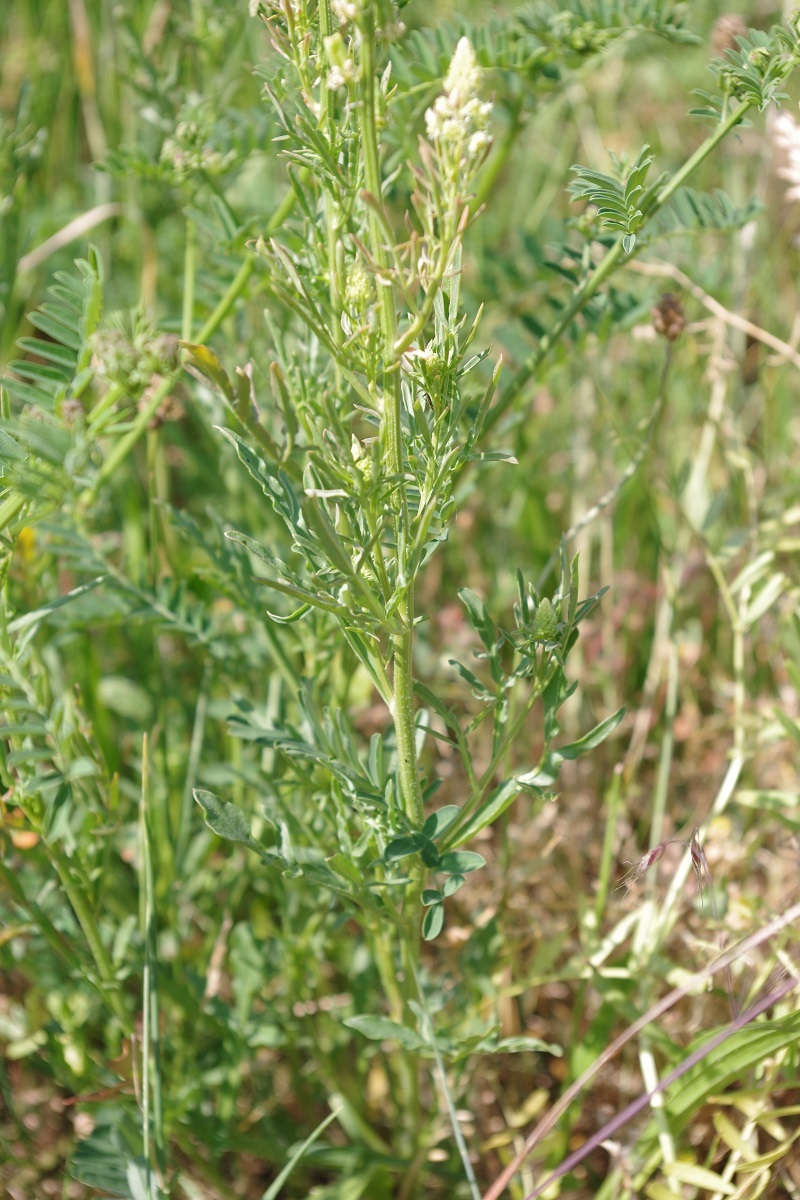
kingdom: Plantae
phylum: Tracheophyta
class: Magnoliopsida
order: Brassicales
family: Resedaceae
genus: Reseda
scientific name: Reseda lutea
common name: Wild mignonette
